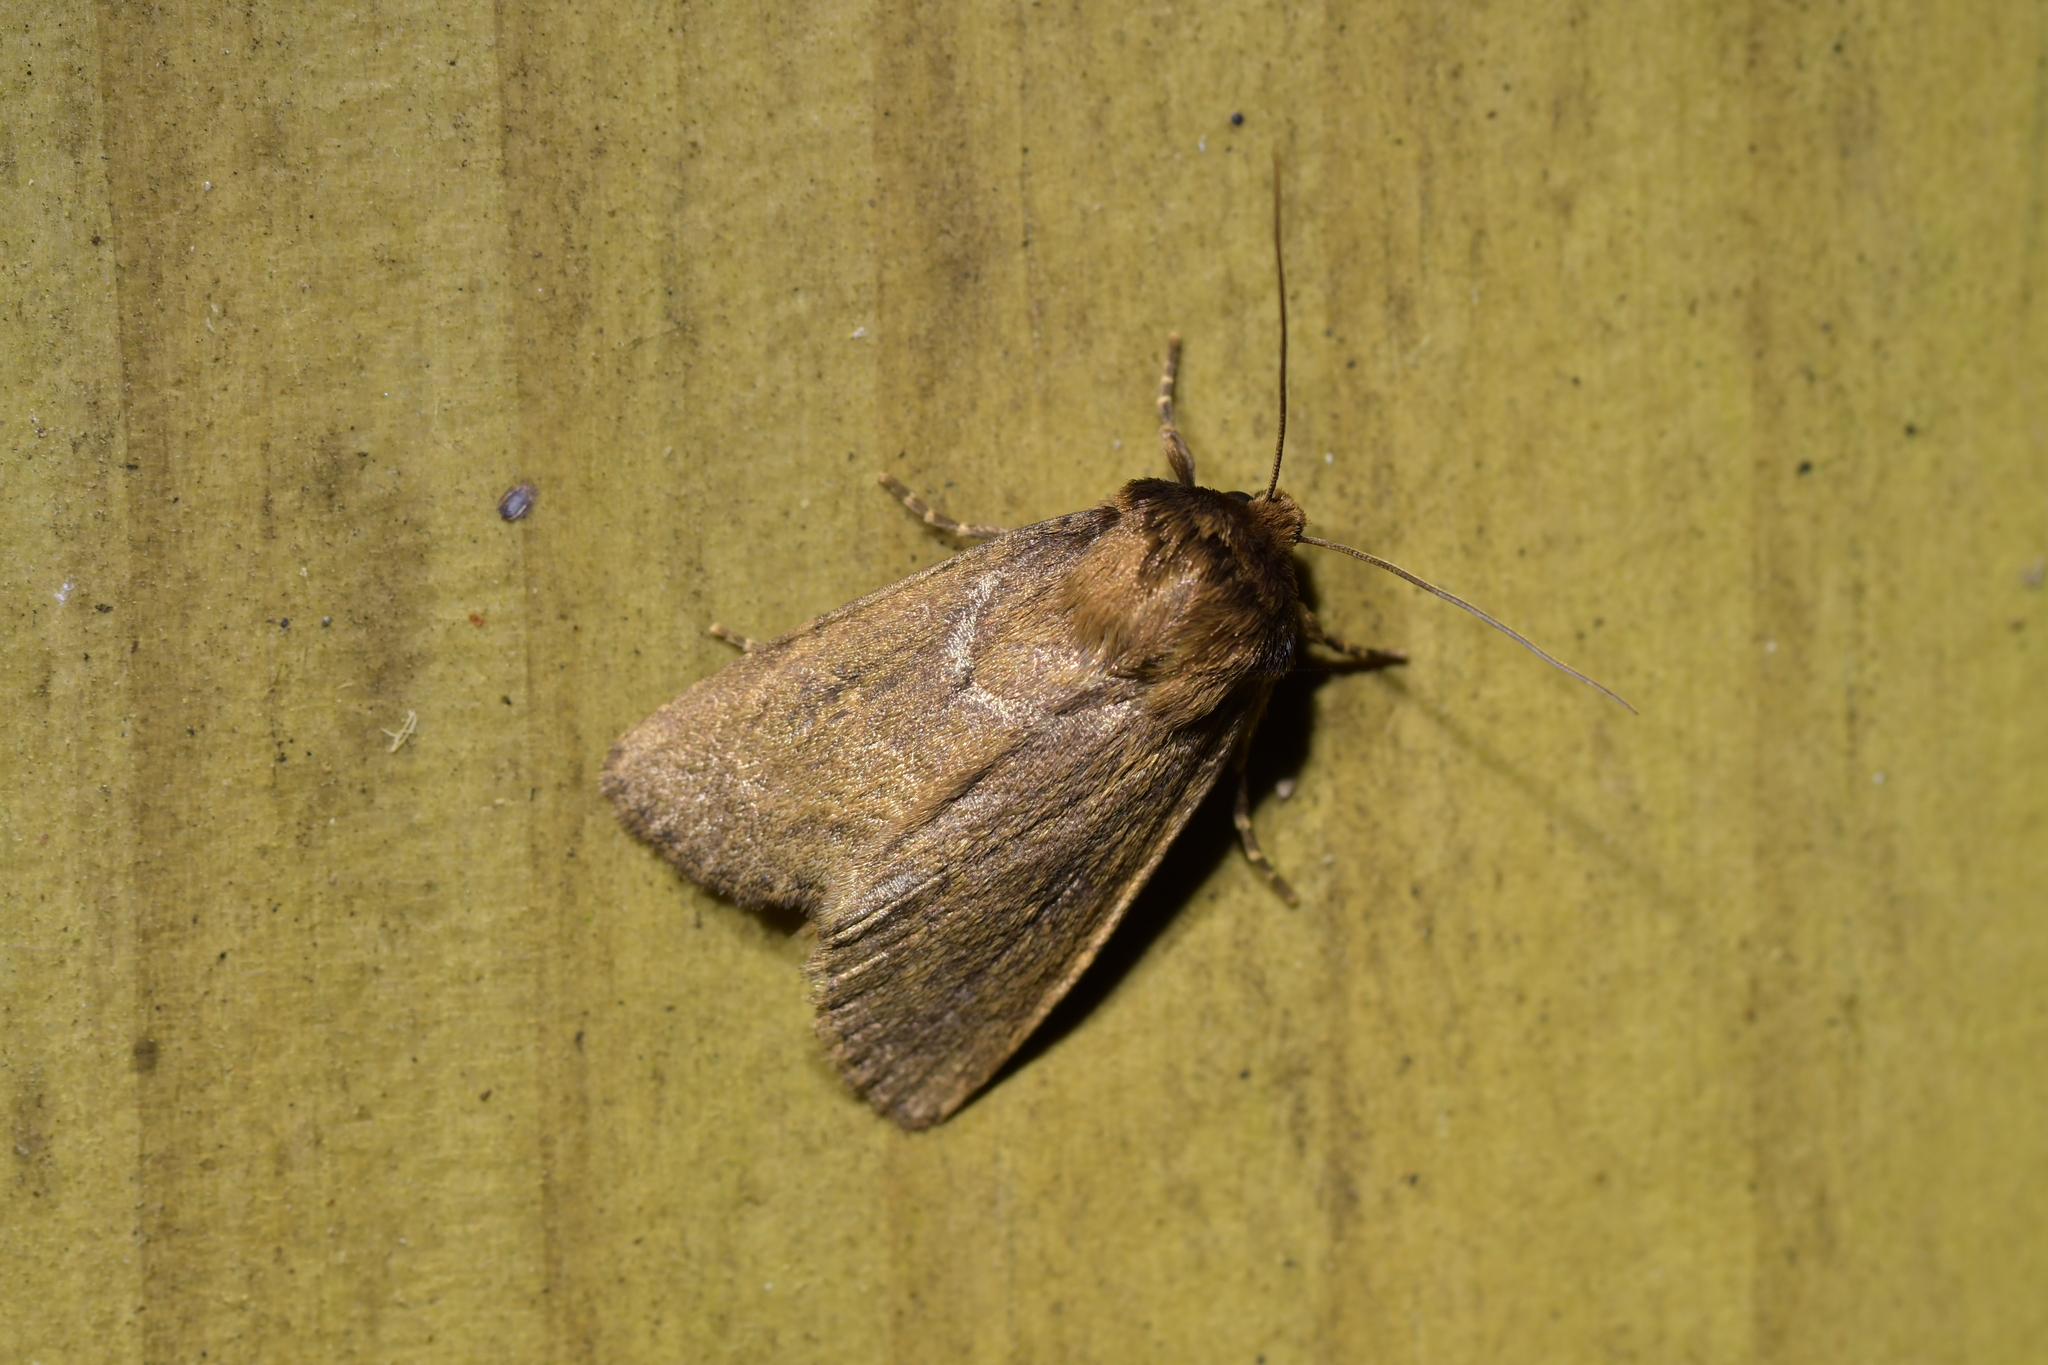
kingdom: Animalia
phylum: Arthropoda
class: Insecta
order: Lepidoptera
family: Noctuidae
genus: Bityla
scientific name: Bityla defigurata
